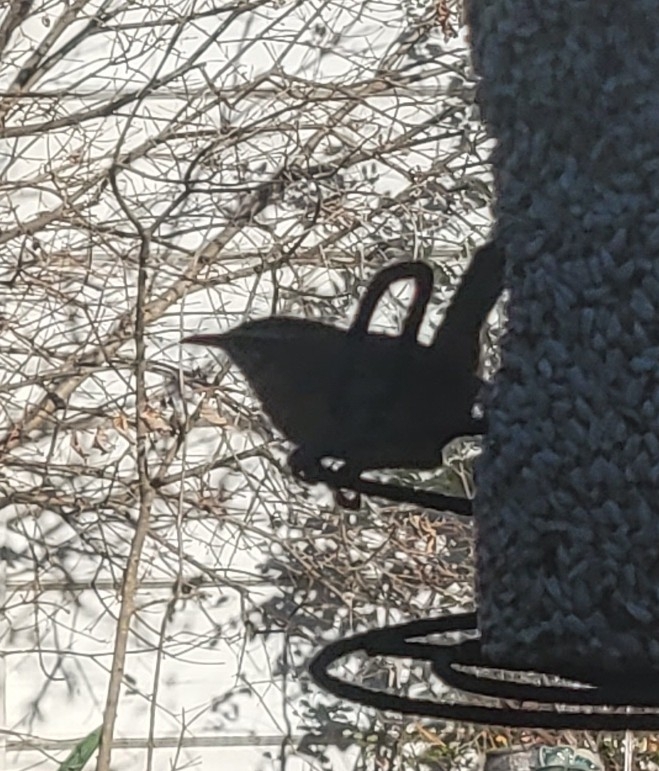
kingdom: Animalia
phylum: Chordata
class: Aves
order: Passeriformes
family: Troglodytidae
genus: Thryothorus
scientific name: Thryothorus ludovicianus
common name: Carolina wren
